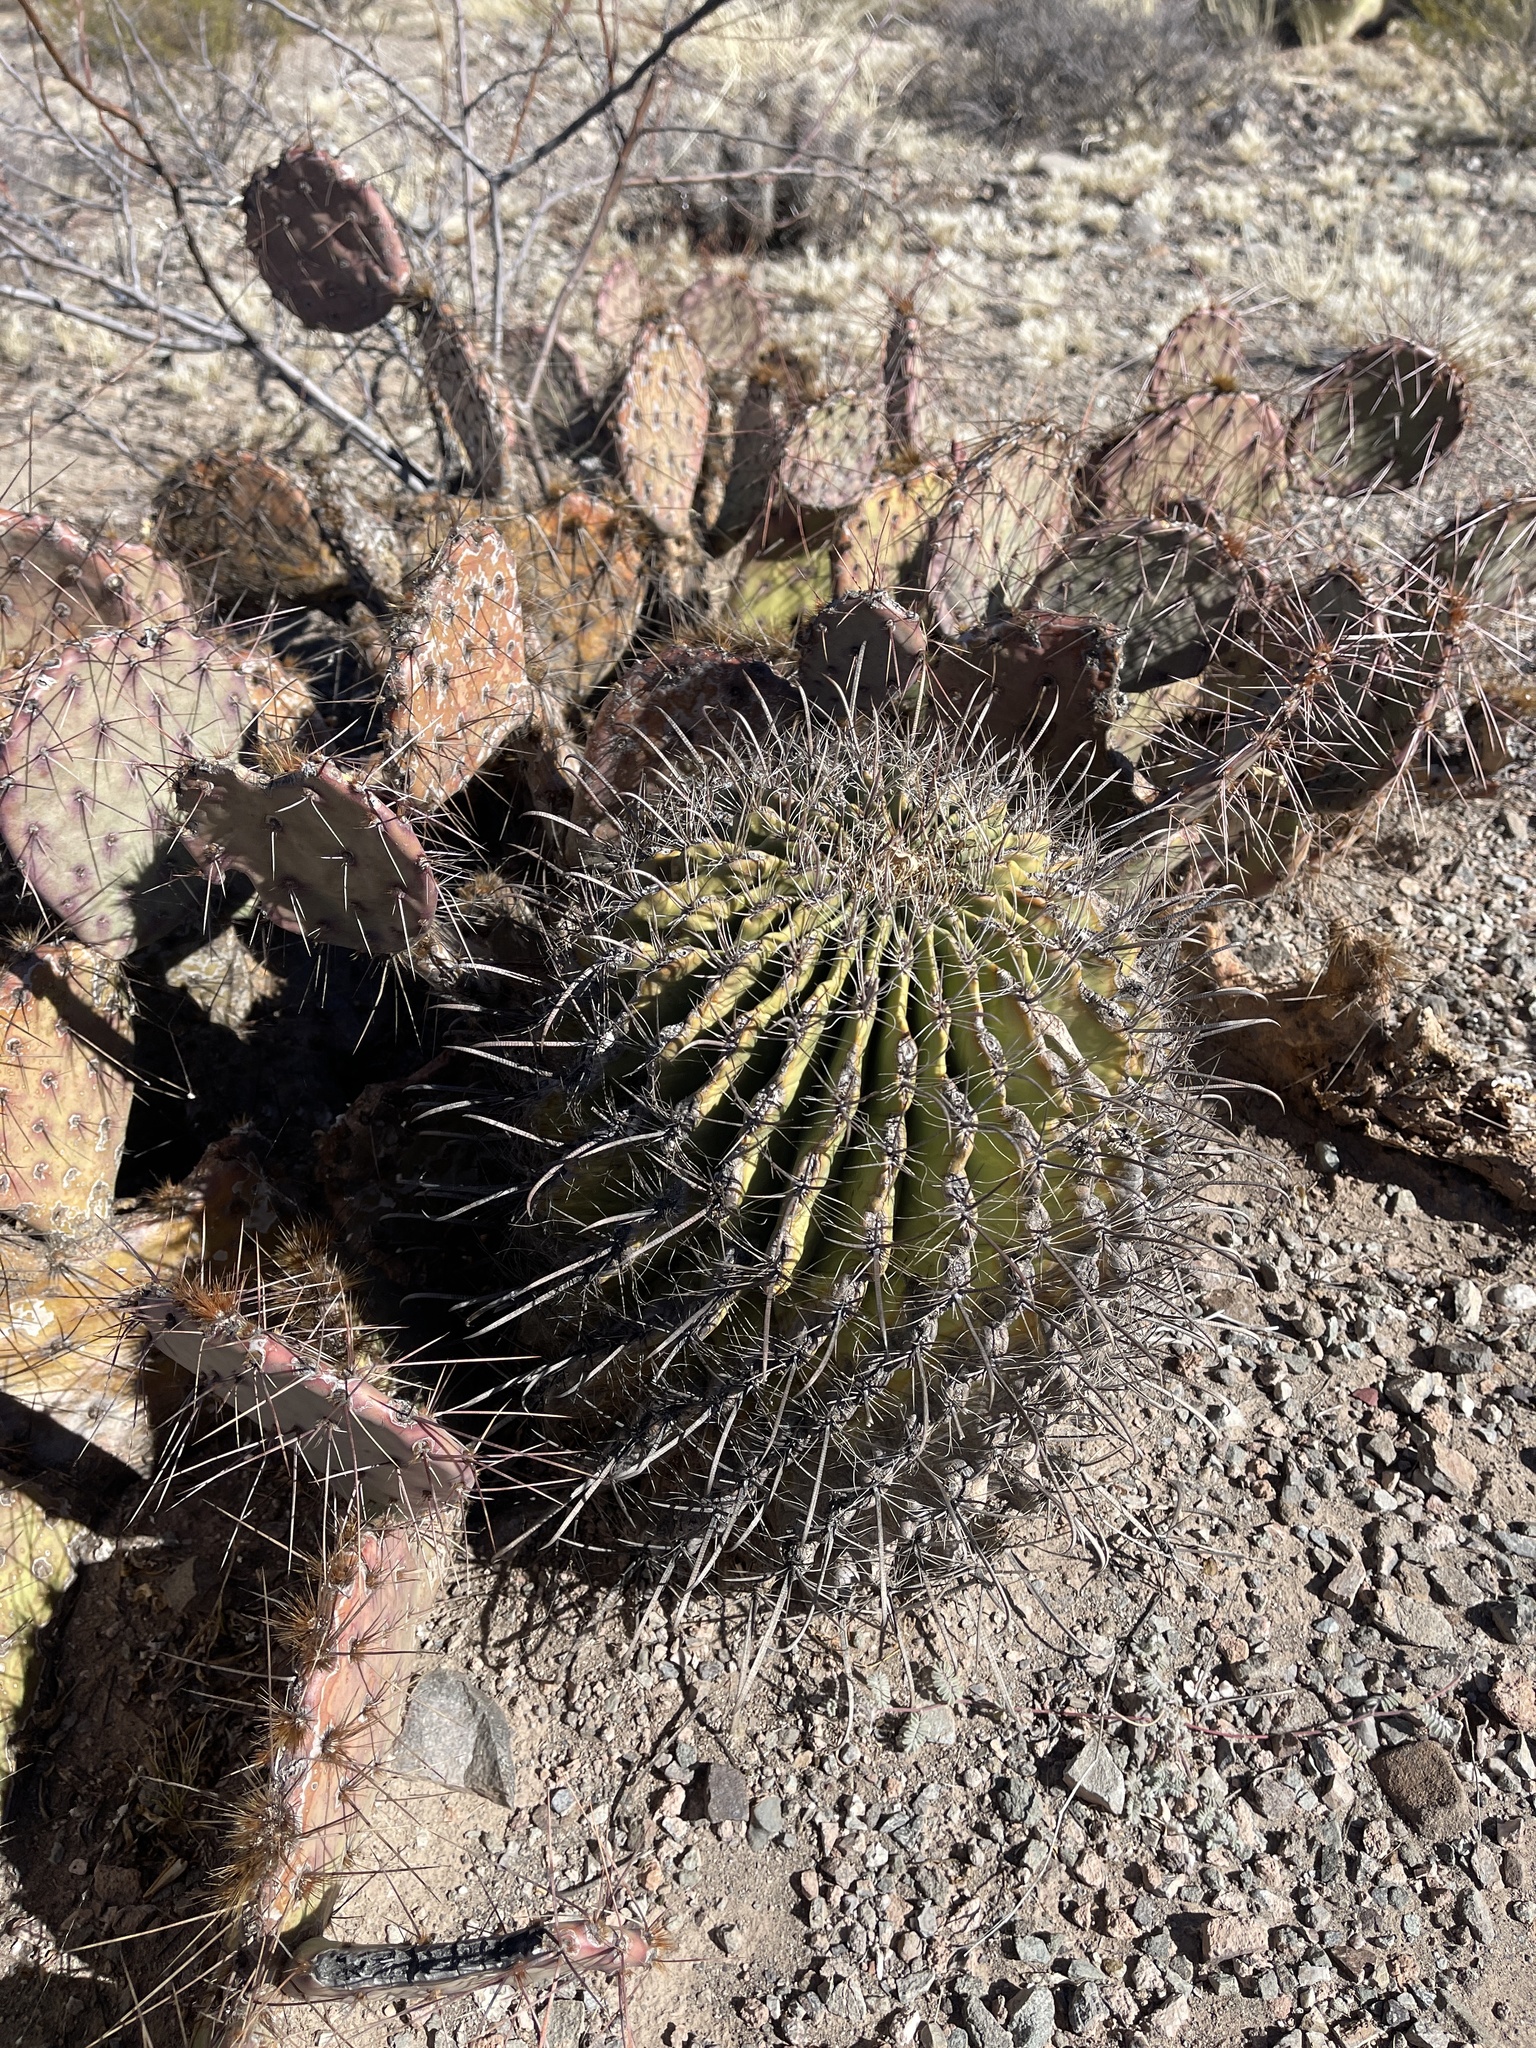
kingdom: Plantae
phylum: Tracheophyta
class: Magnoliopsida
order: Caryophyllales
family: Cactaceae
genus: Ferocactus
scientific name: Ferocactus wislizeni
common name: Candy barrel cactus
